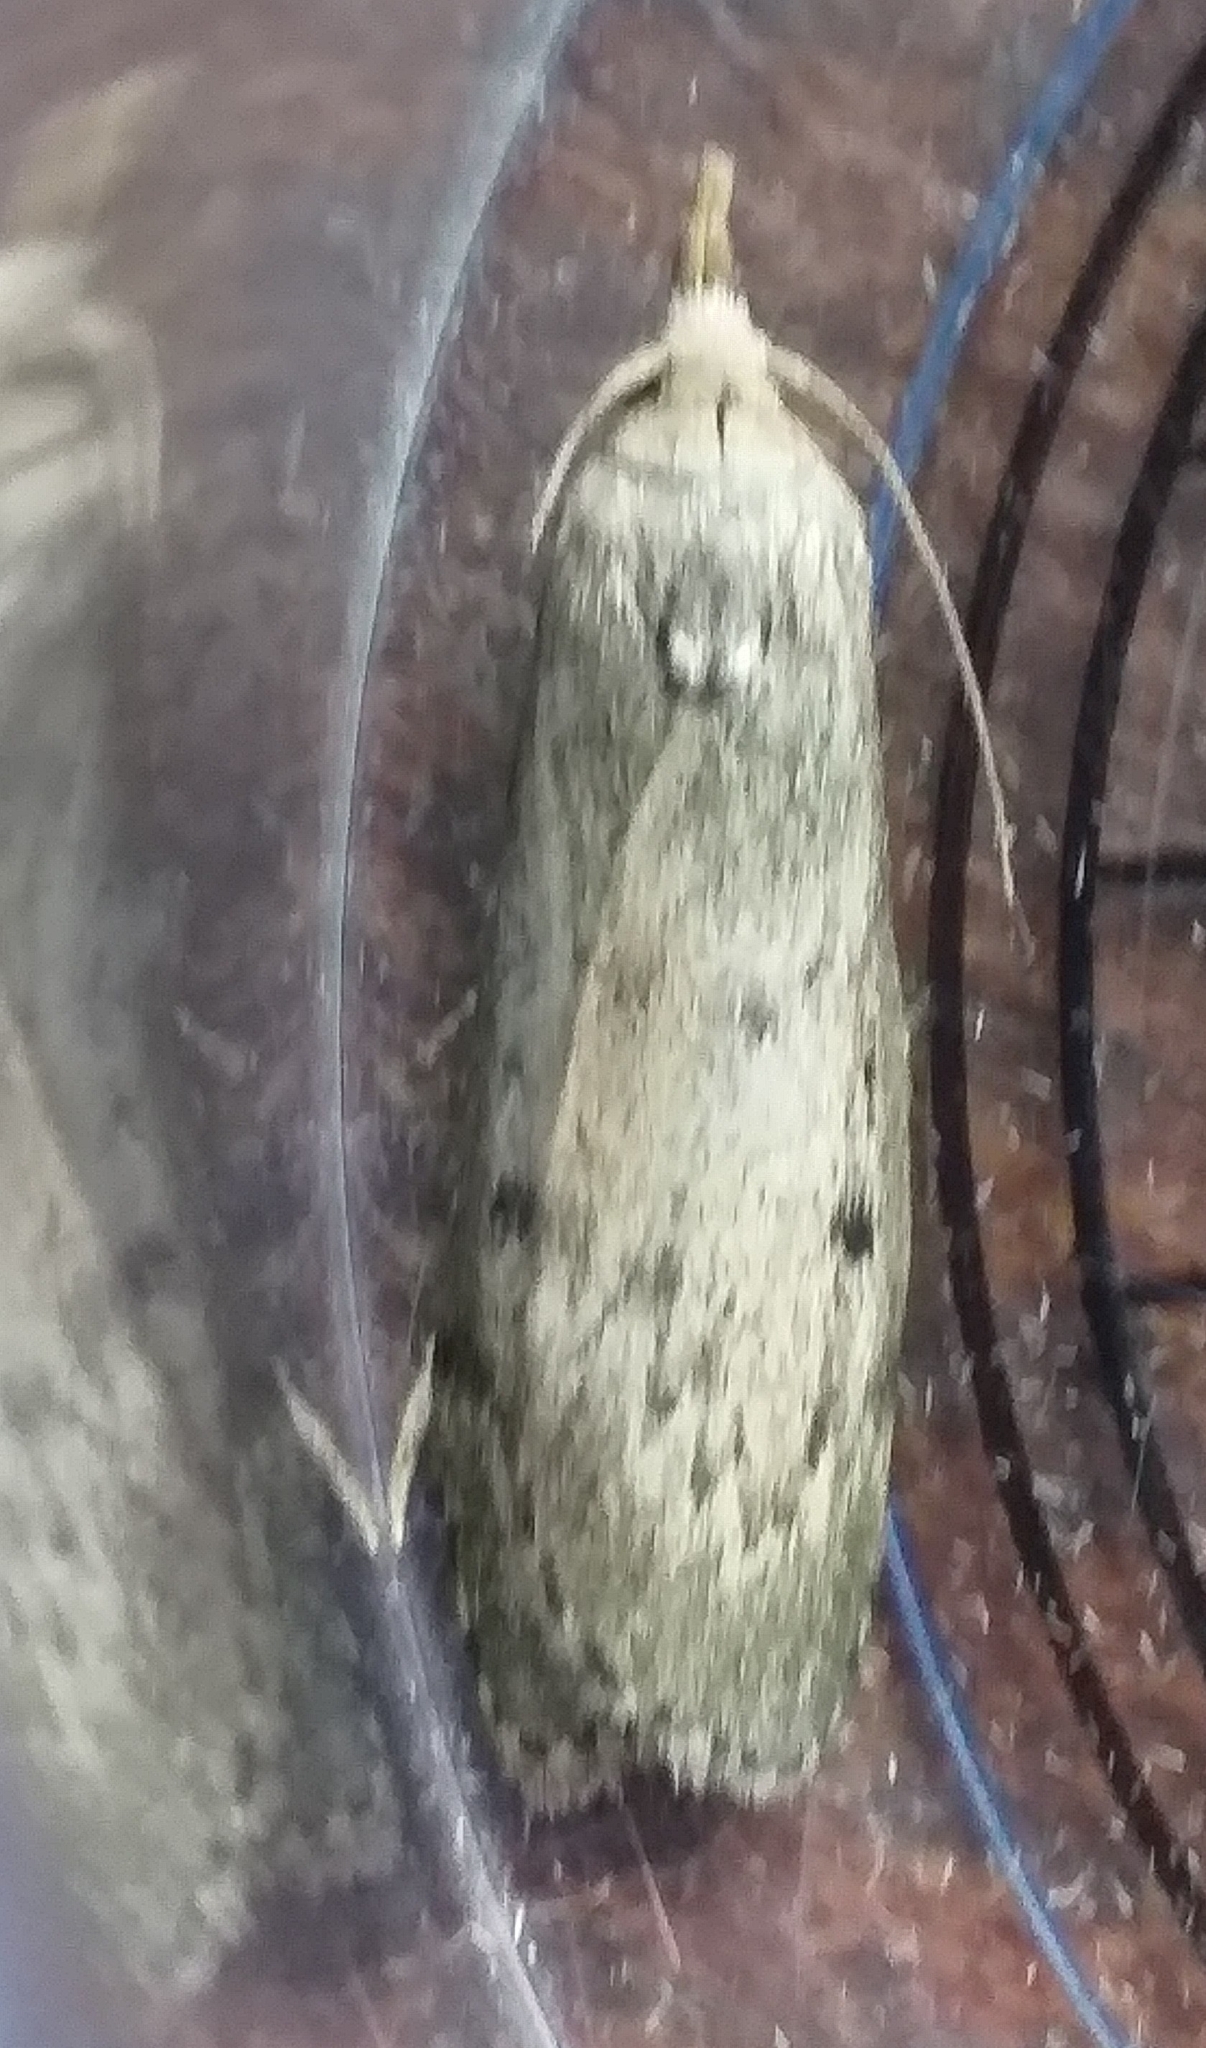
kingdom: Animalia
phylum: Arthropoda
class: Insecta
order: Lepidoptera
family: Pyralidae
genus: Aphomia
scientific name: Aphomia sociella
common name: Bee moth
